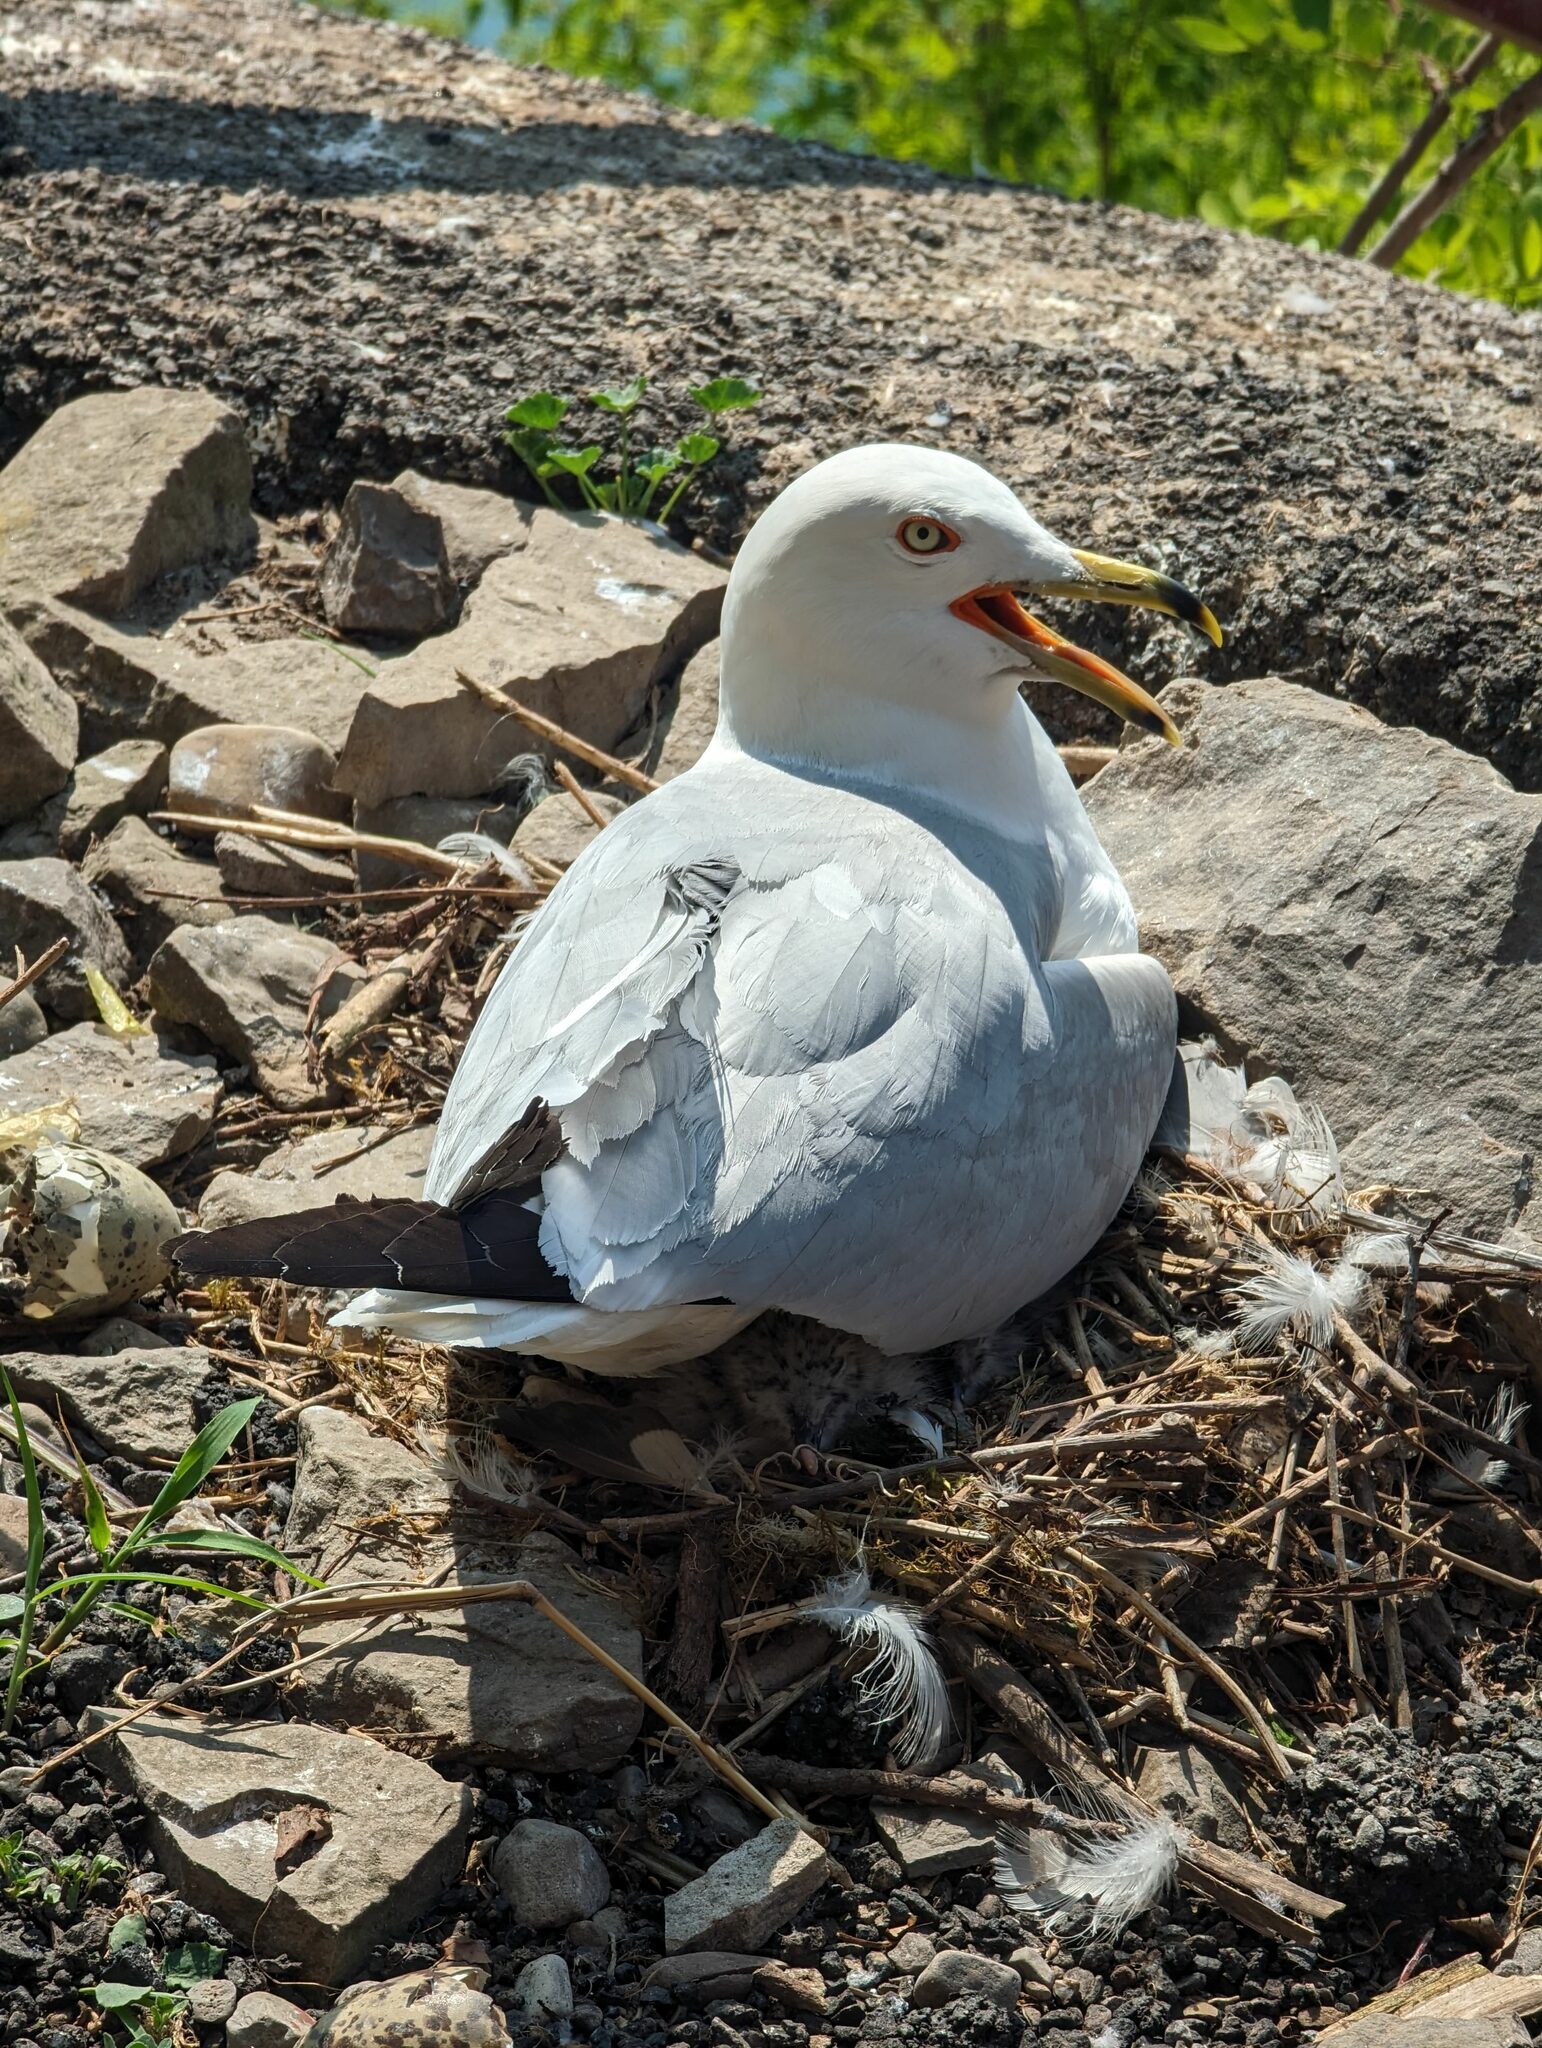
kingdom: Animalia
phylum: Chordata
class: Aves
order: Charadriiformes
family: Laridae
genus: Larus
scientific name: Larus delawarensis
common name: Ring-billed gull
